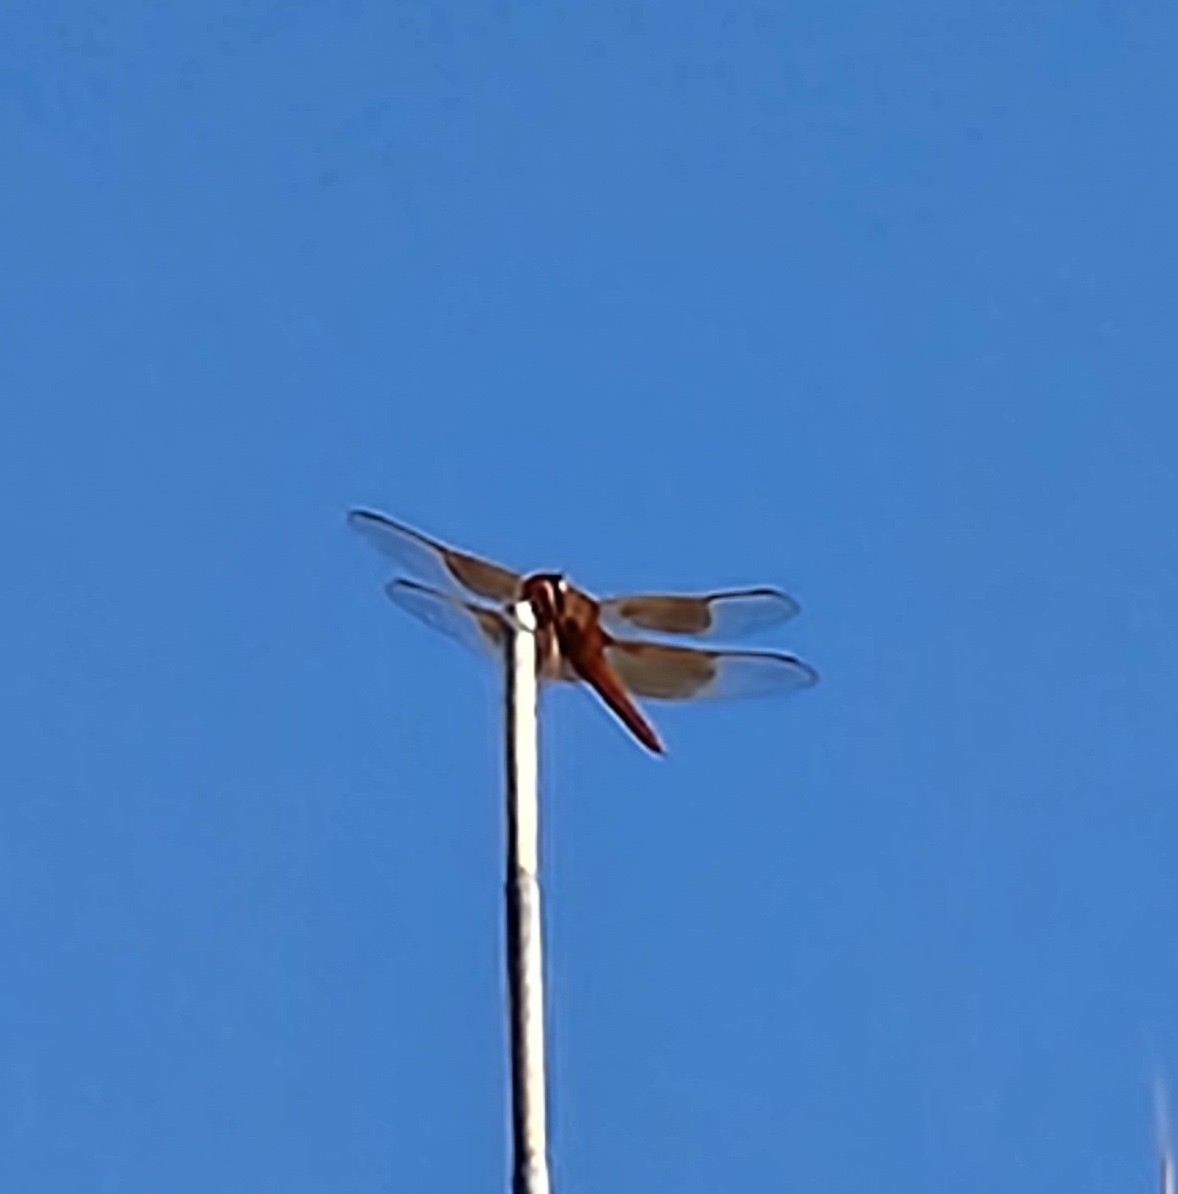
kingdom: Animalia
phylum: Arthropoda
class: Insecta
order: Odonata
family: Libellulidae
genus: Libellula
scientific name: Libellula saturata
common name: Flame skimmer
